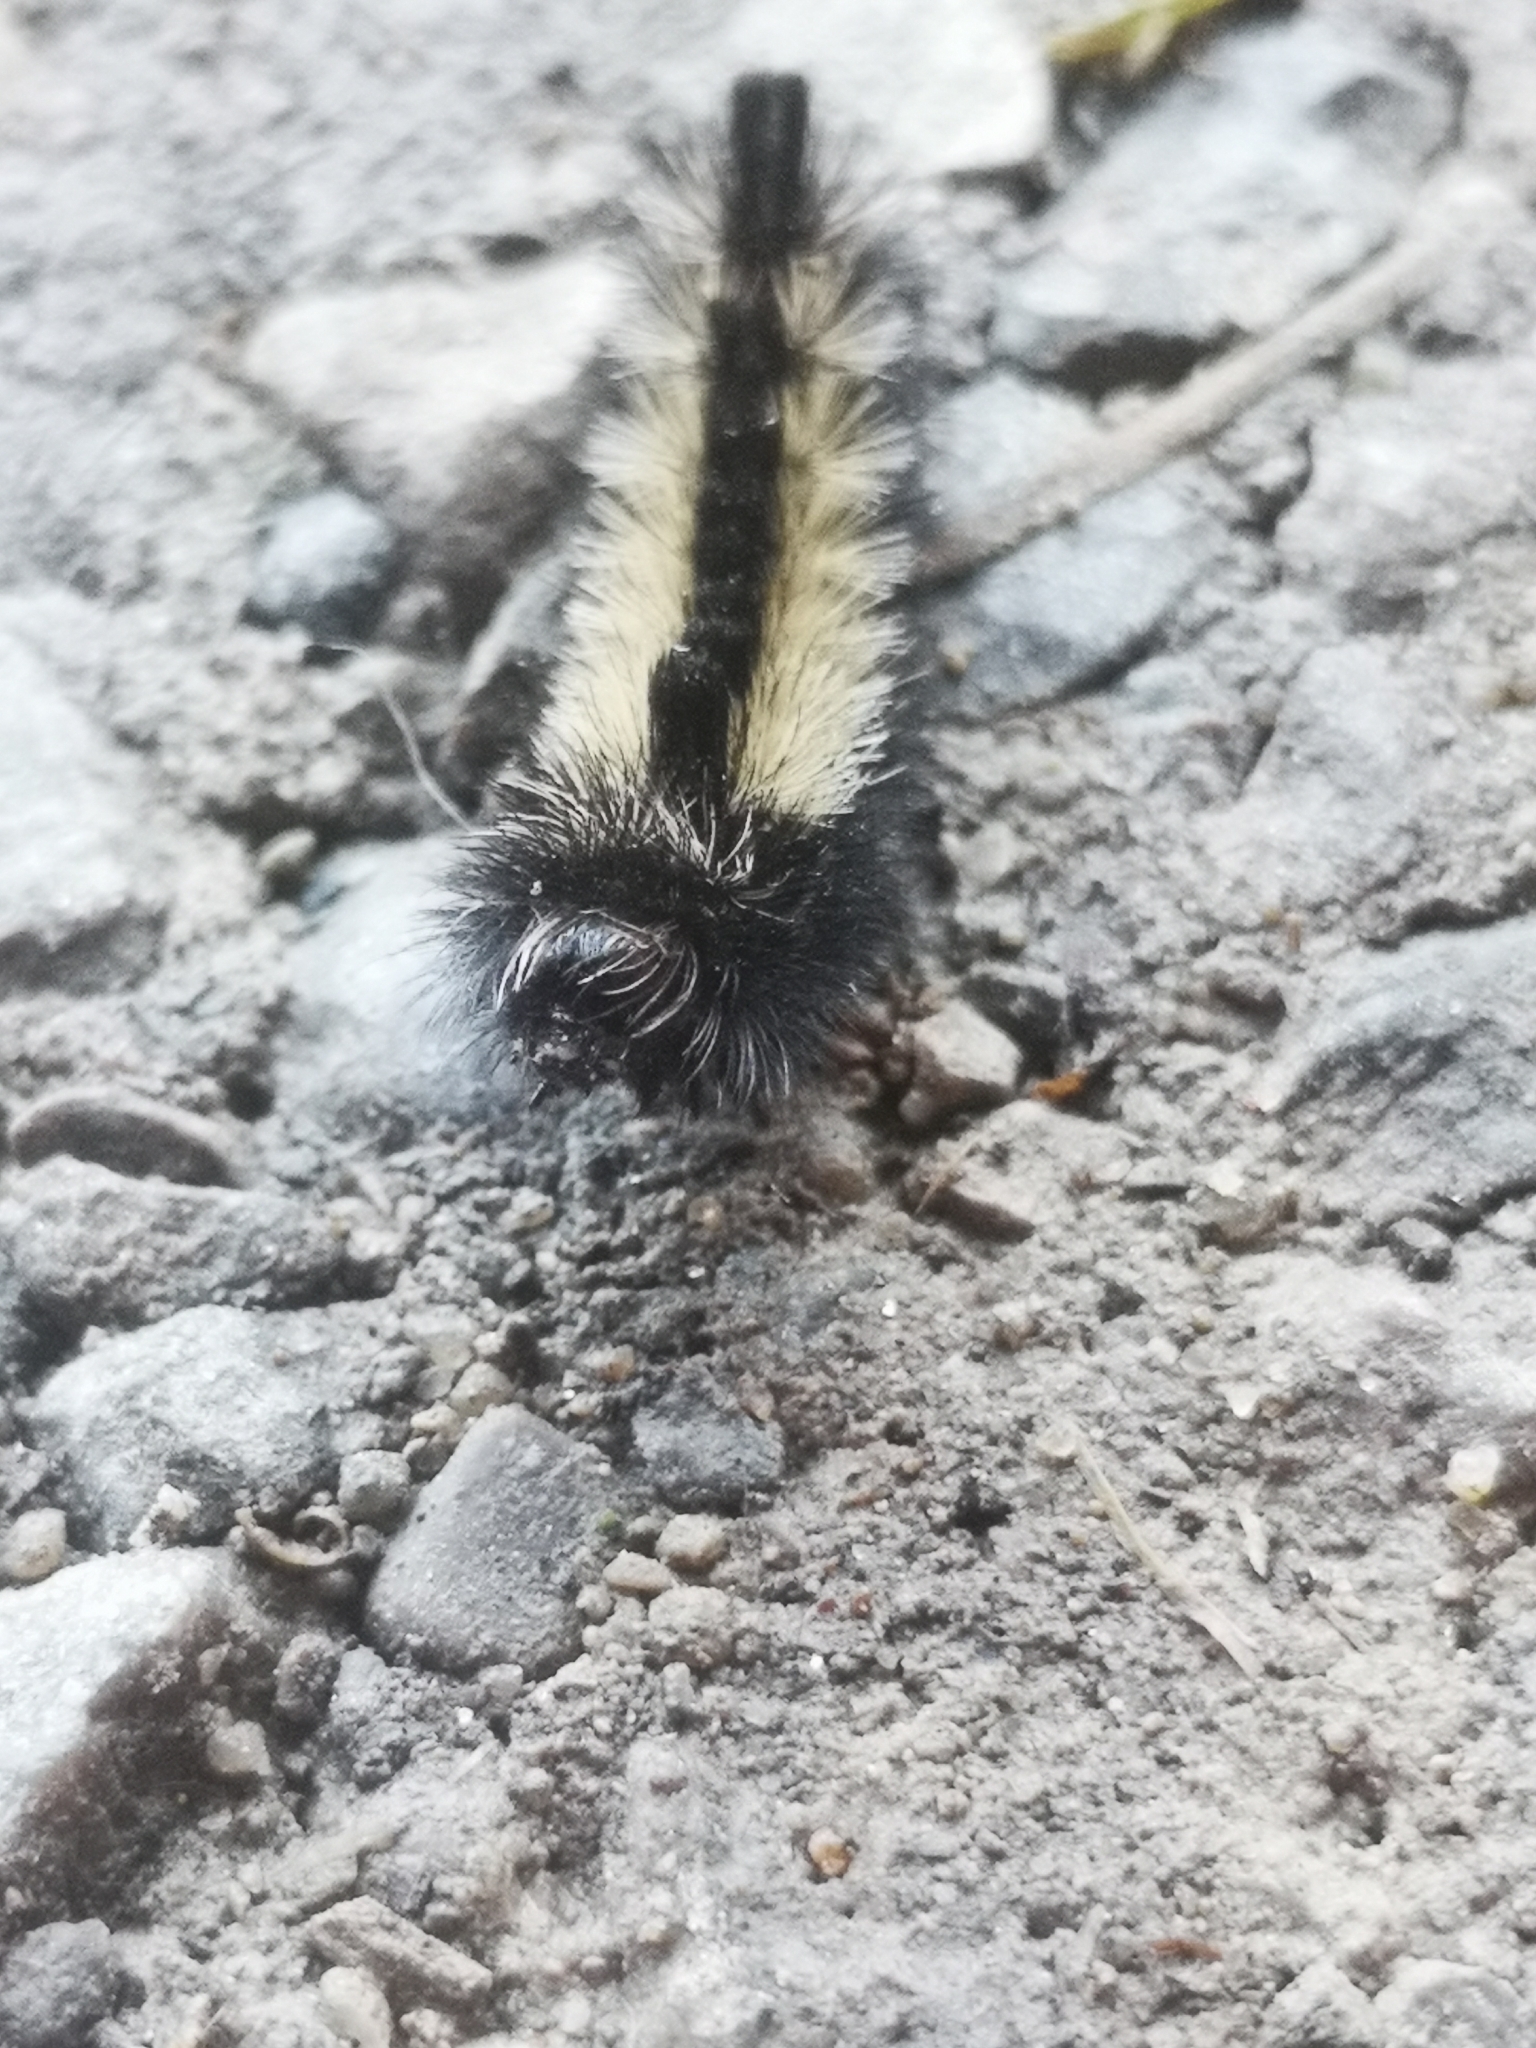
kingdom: Animalia
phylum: Arthropoda
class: Insecta
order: Lepidoptera
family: Erebidae
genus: Ctenucha
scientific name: Ctenucha virginica
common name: Virginia ctenucha moth
